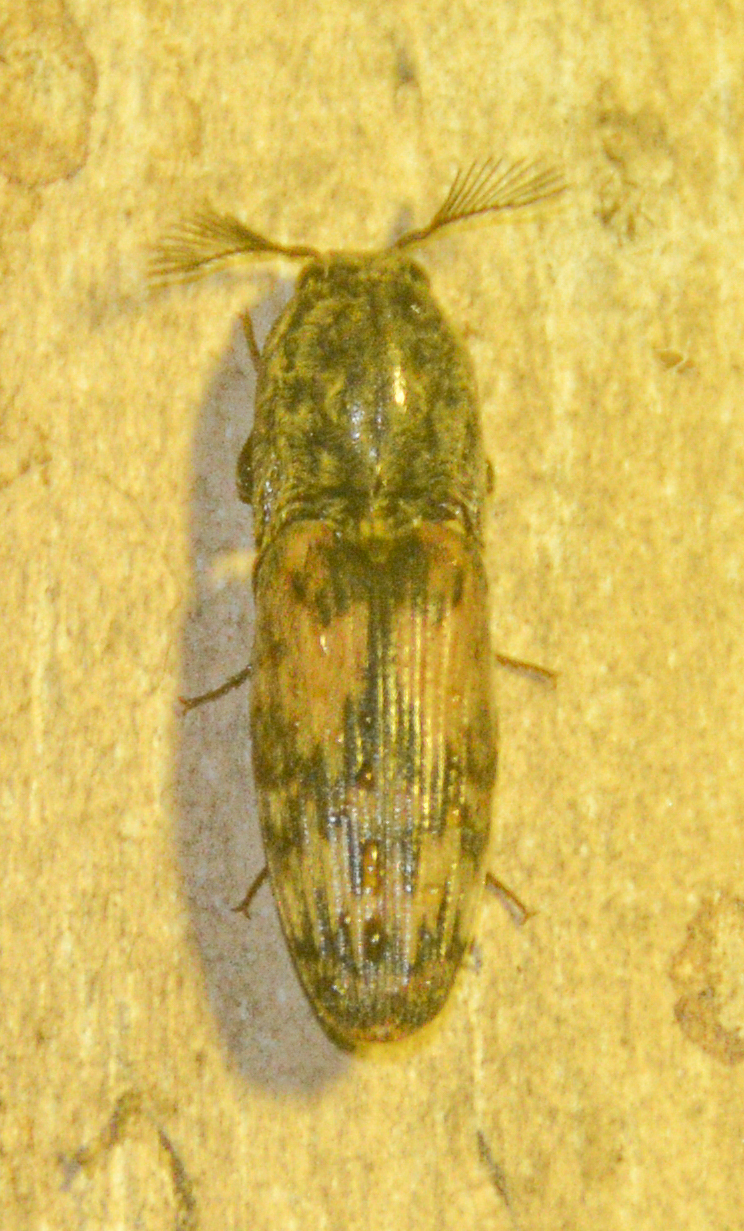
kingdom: Animalia
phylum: Arthropoda
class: Insecta
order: Coleoptera
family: Elateridae
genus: Pherhimius
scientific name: Pherhimius fascicularis
